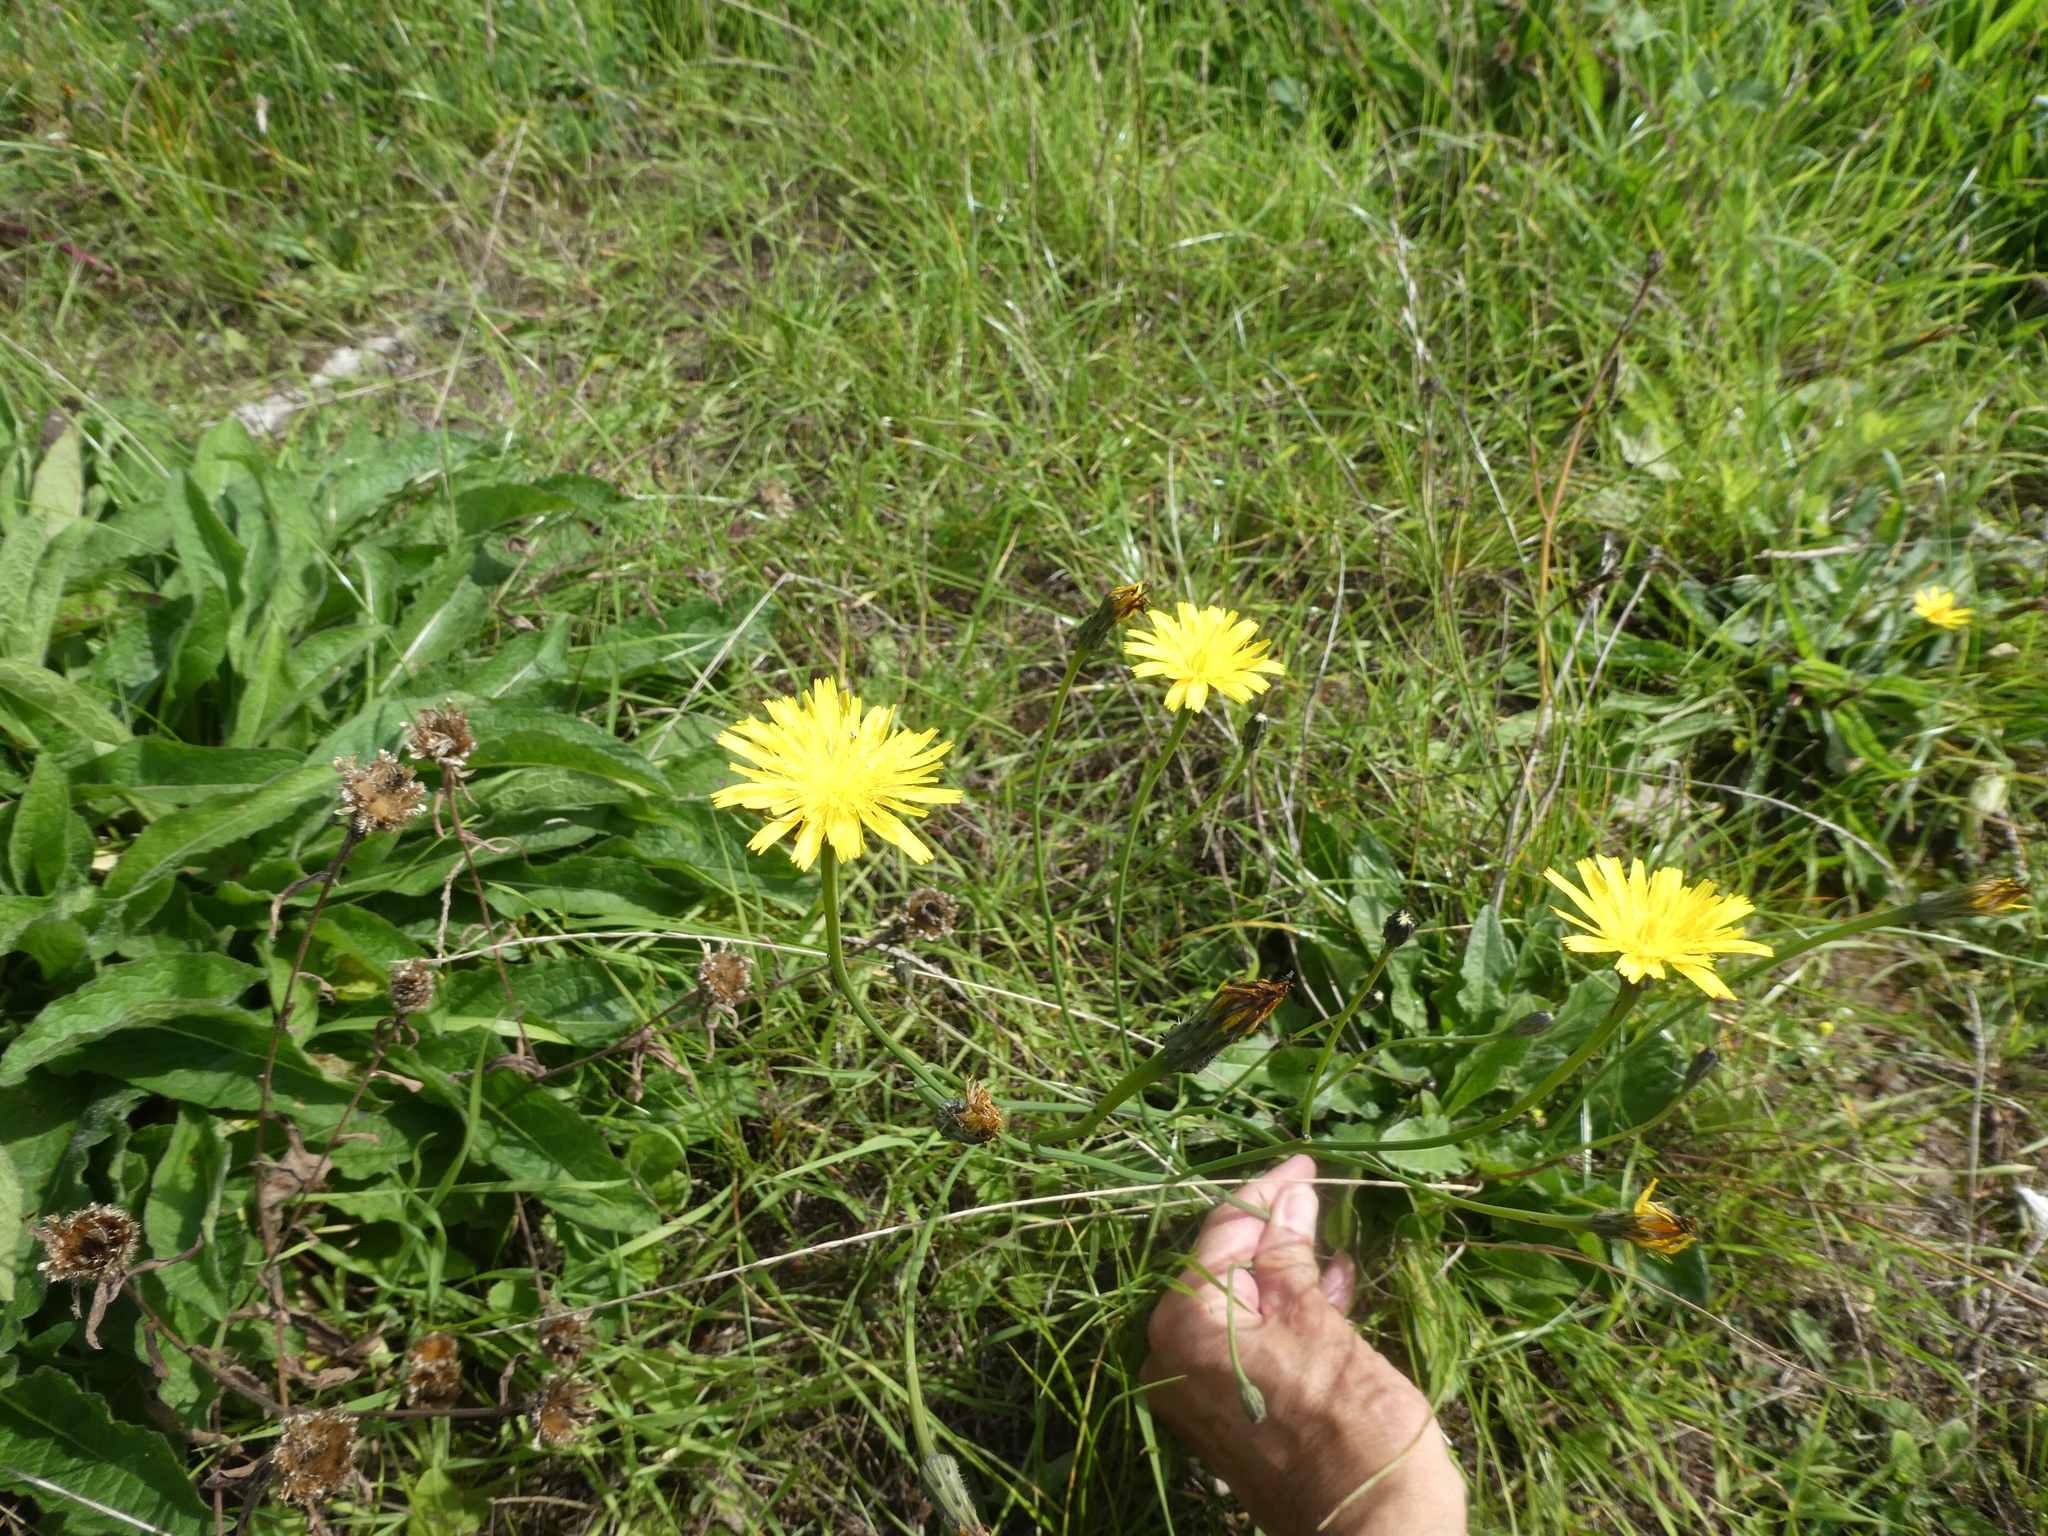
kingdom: Plantae
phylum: Tracheophyta
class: Magnoliopsida
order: Asterales
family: Asteraceae
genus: Hypochaeris
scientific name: Hypochaeris radicata
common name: Flatweed
